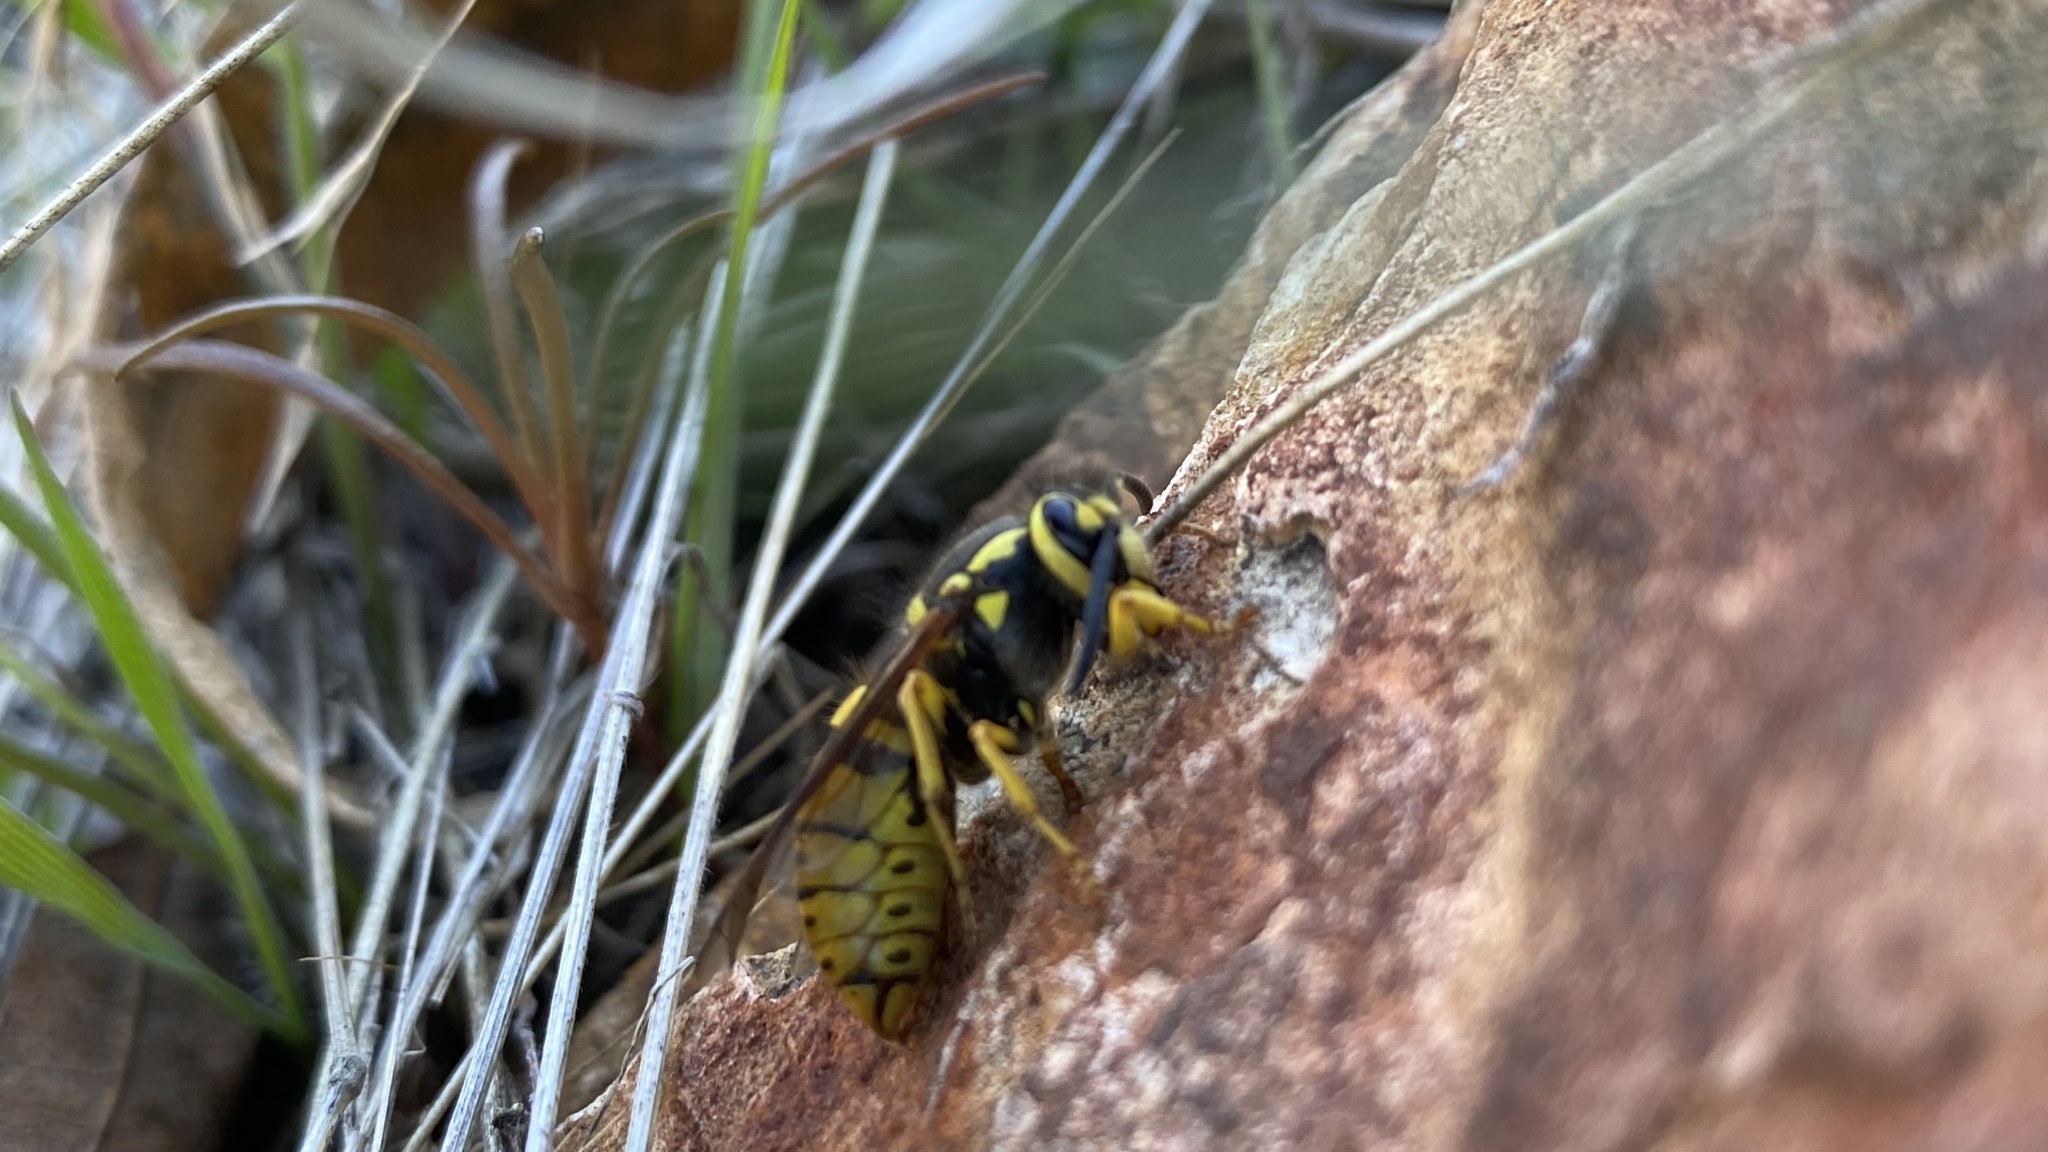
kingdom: Animalia
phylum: Arthropoda
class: Insecta
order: Hymenoptera
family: Vespidae
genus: Vespula
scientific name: Vespula pensylvanica
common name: Western yellowjacket
